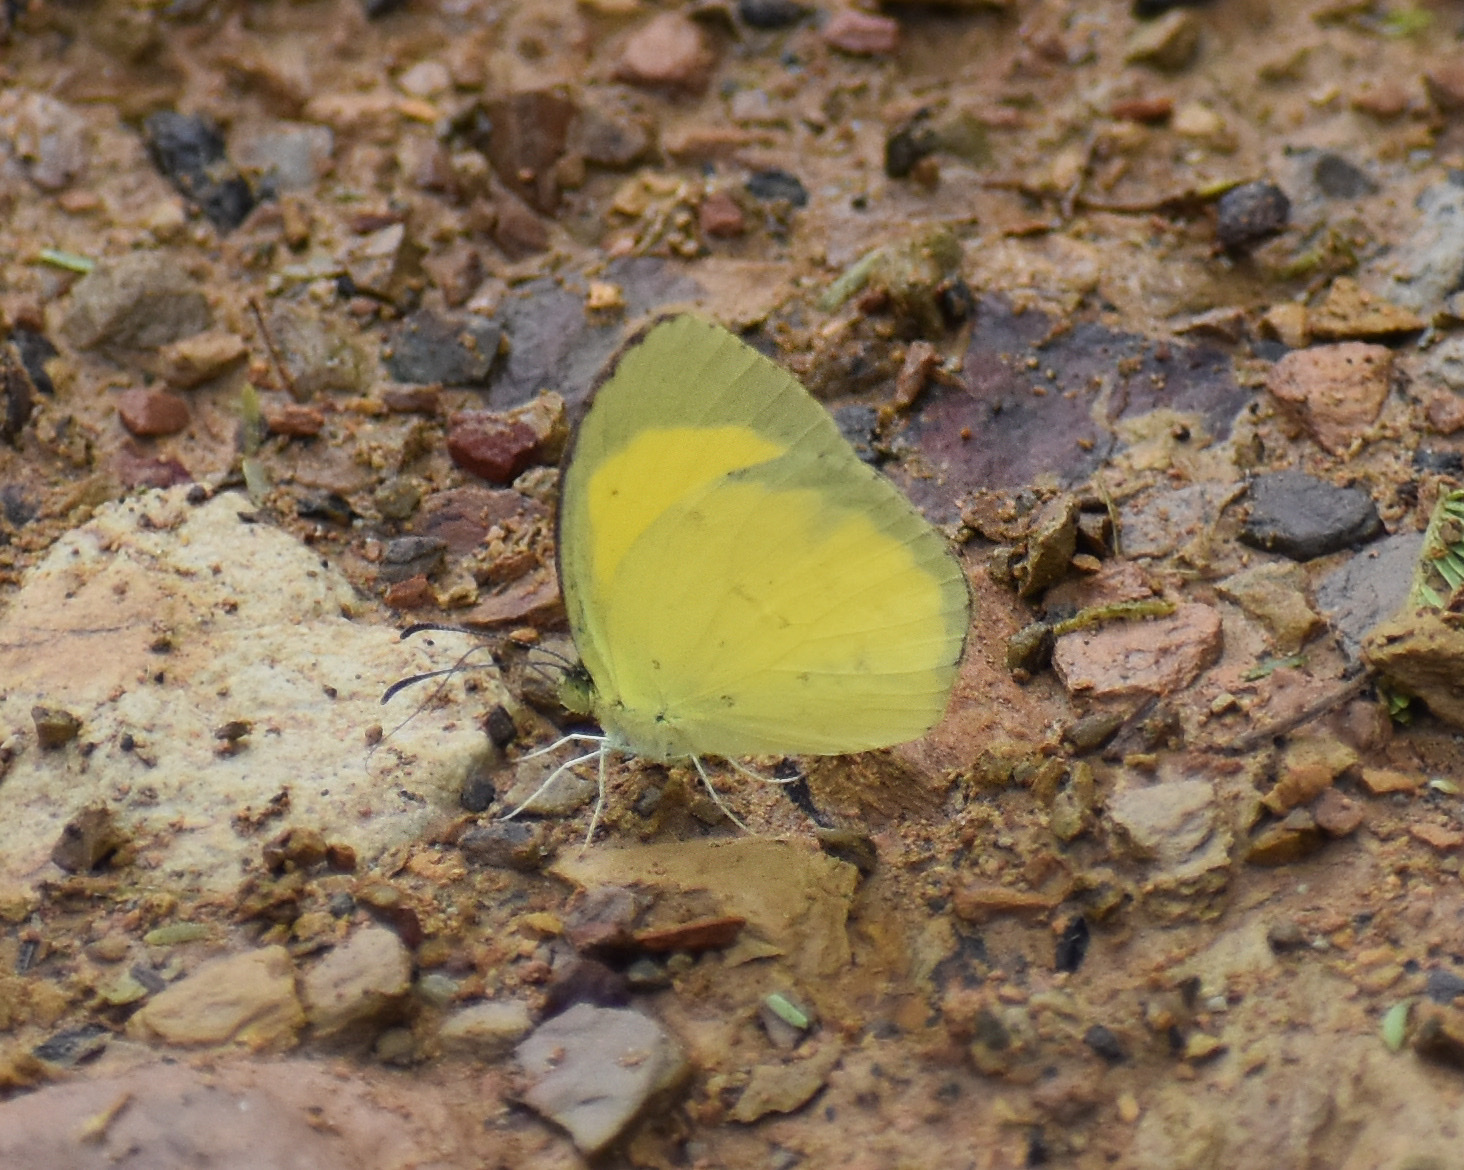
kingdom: Animalia
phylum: Arthropoda
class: Insecta
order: Lepidoptera
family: Pieridae
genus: Eurema
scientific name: Eurema brigitta
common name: Small grass yellow
